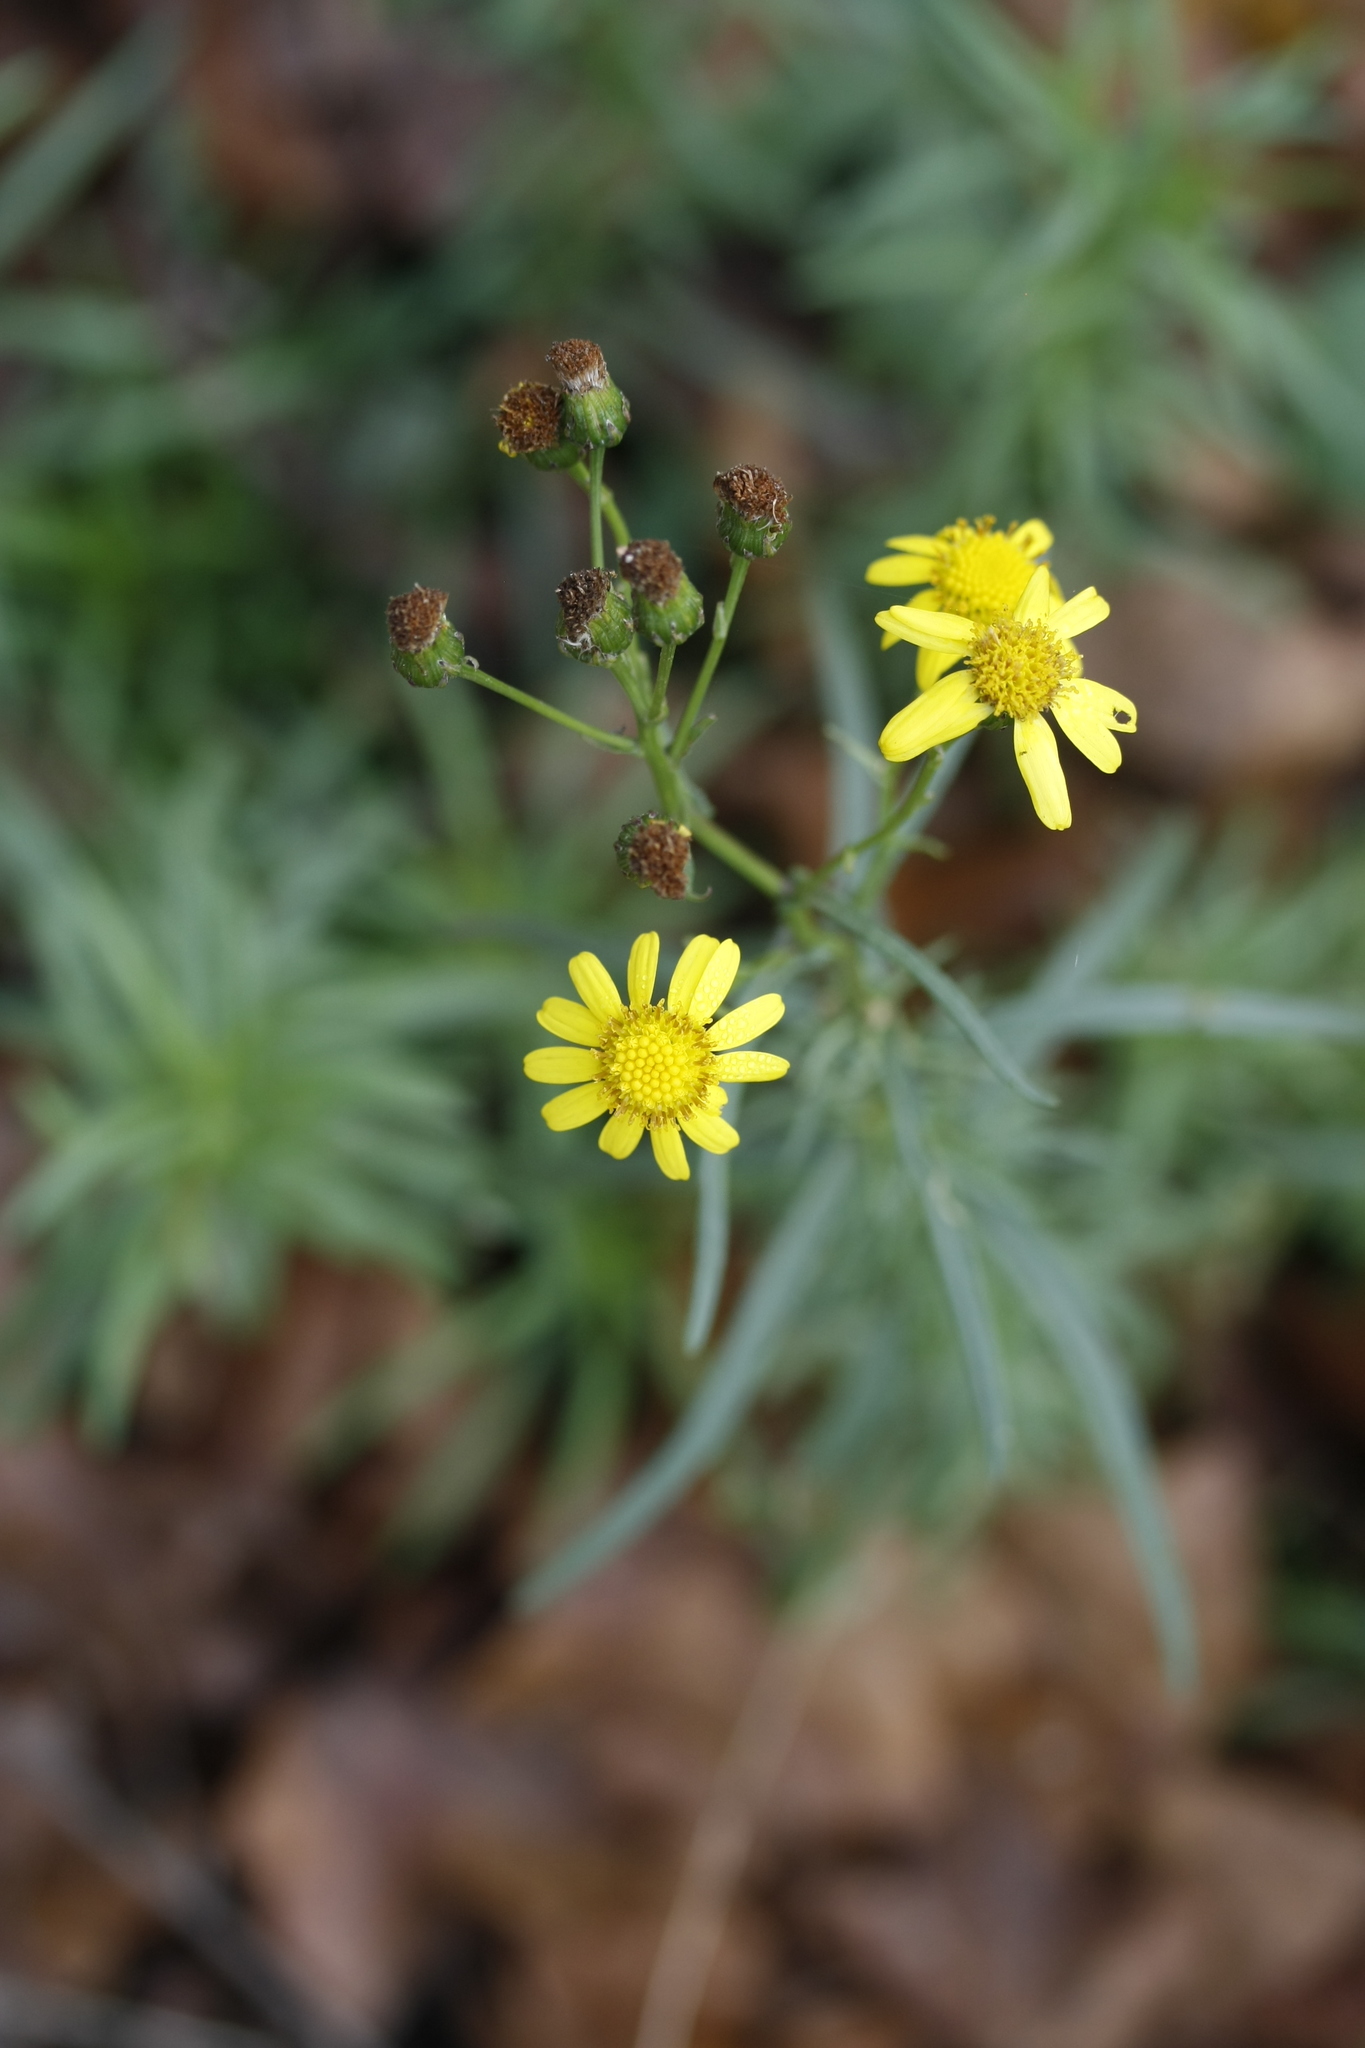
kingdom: Plantae
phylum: Tracheophyta
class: Magnoliopsida
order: Asterales
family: Asteraceae
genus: Senecio
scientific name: Senecio inaequidens
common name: Narrow-leaved ragwort
